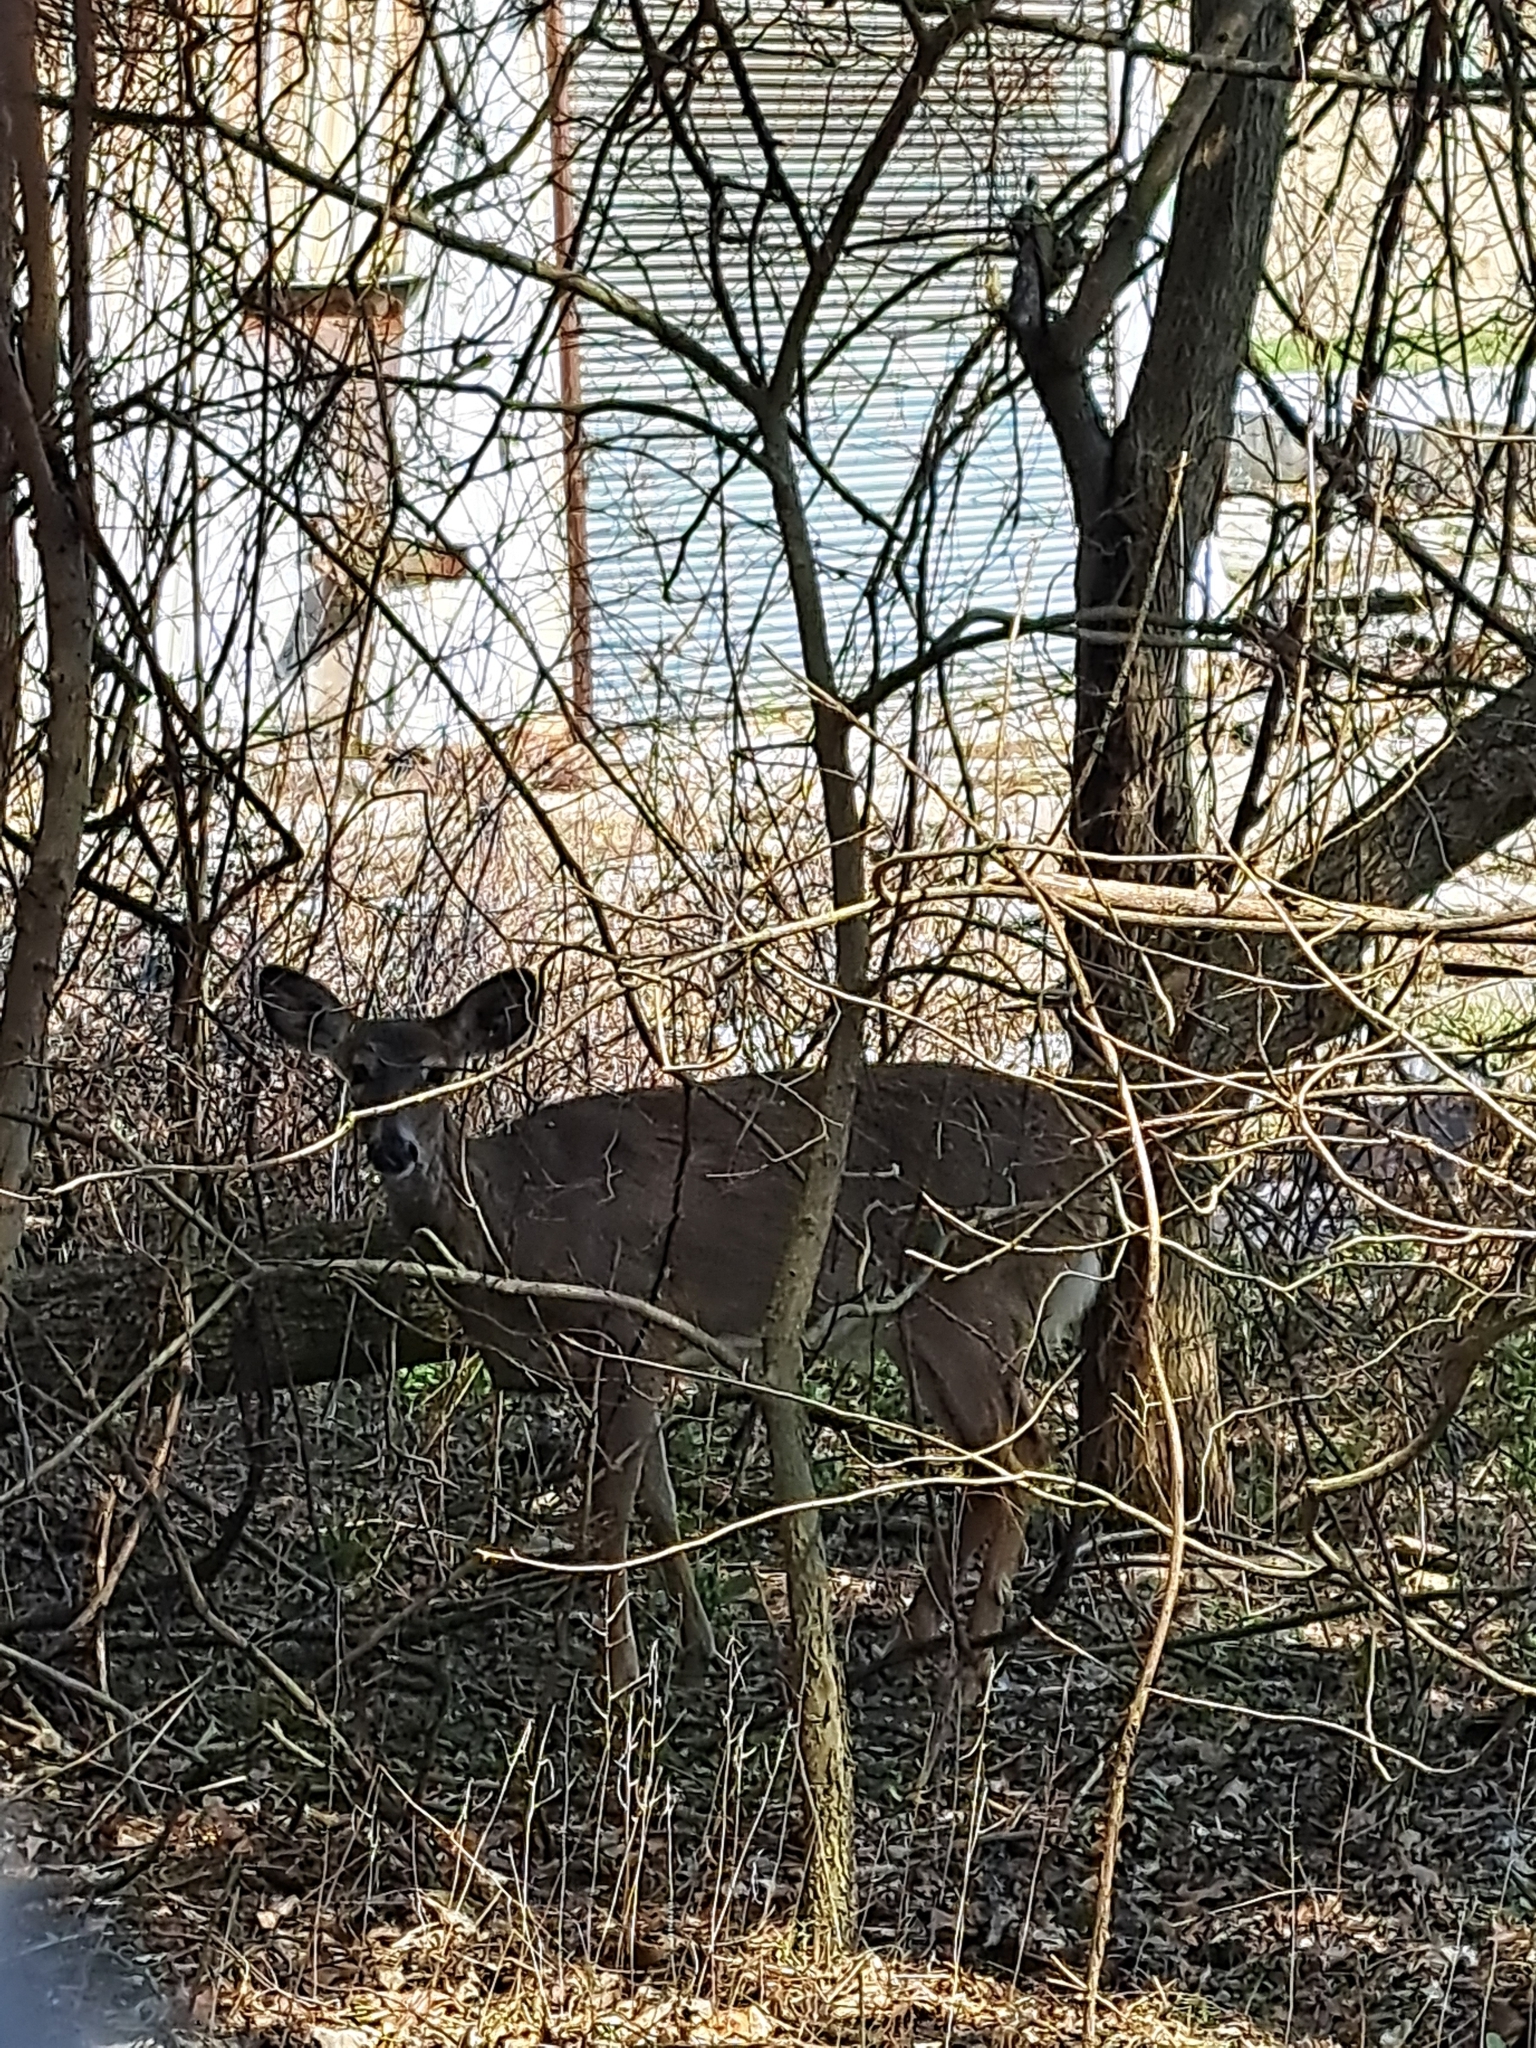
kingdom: Animalia
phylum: Chordata
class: Mammalia
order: Artiodactyla
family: Cervidae
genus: Odocoileus
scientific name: Odocoileus virginianus
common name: White-tailed deer
